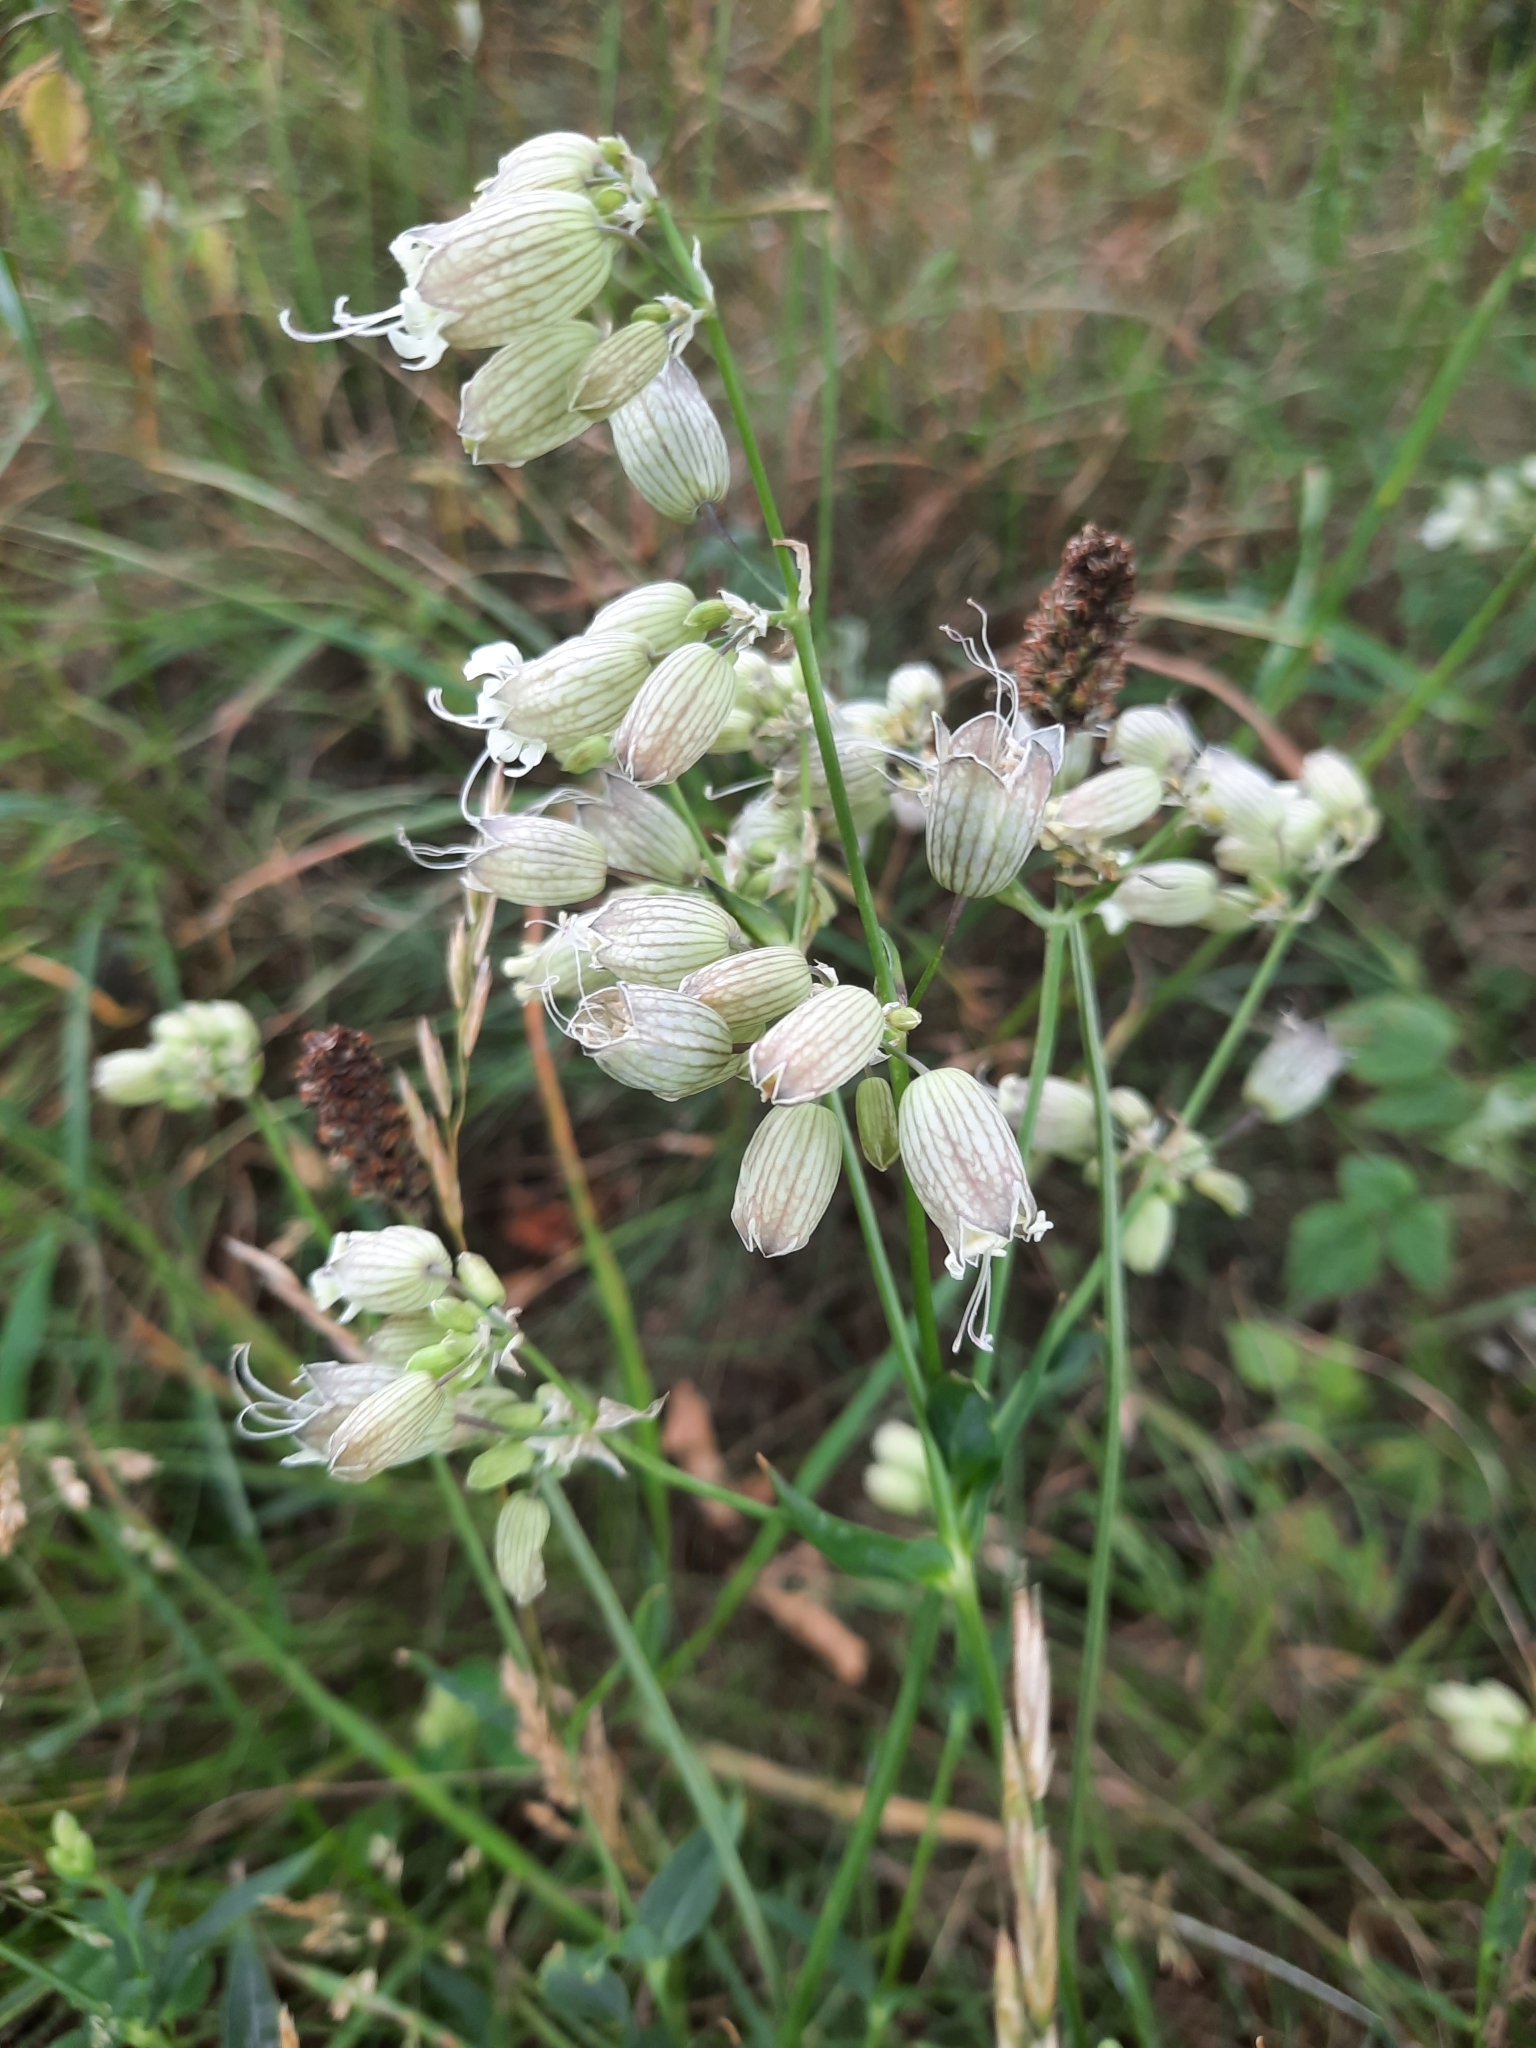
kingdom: Plantae
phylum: Tracheophyta
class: Magnoliopsida
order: Caryophyllales
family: Caryophyllaceae
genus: Silene
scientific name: Silene vulgaris
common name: Bladder campion
